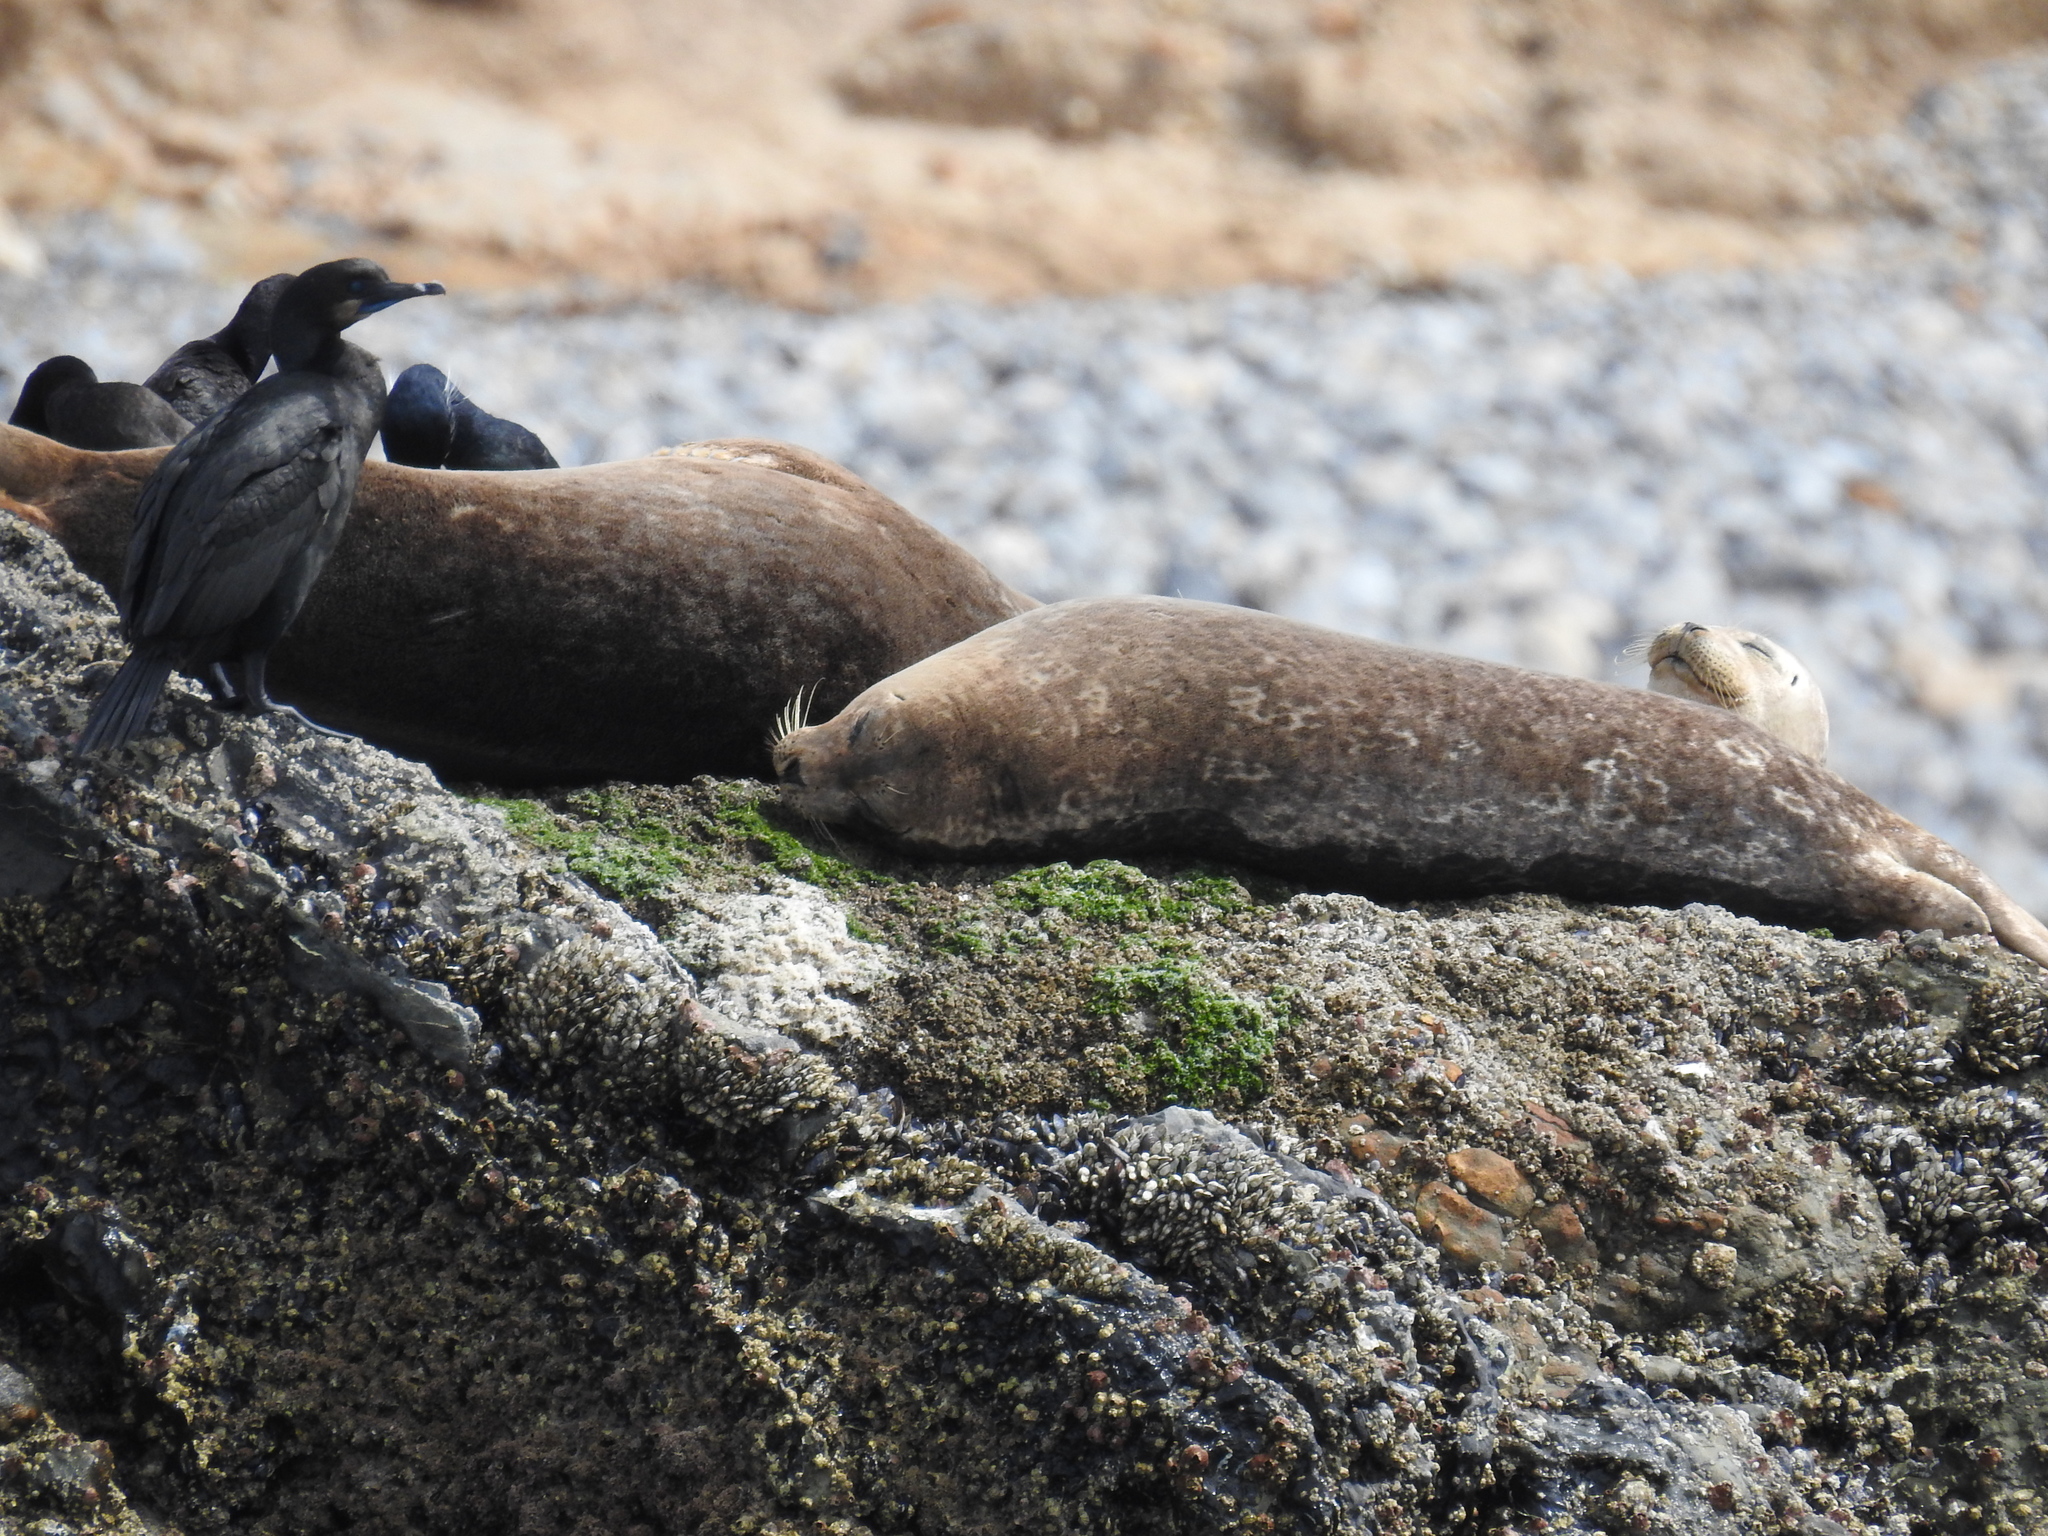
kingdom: Animalia
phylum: Chordata
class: Mammalia
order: Carnivora
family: Phocidae
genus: Phoca
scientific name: Phoca vitulina
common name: Harbor seal
